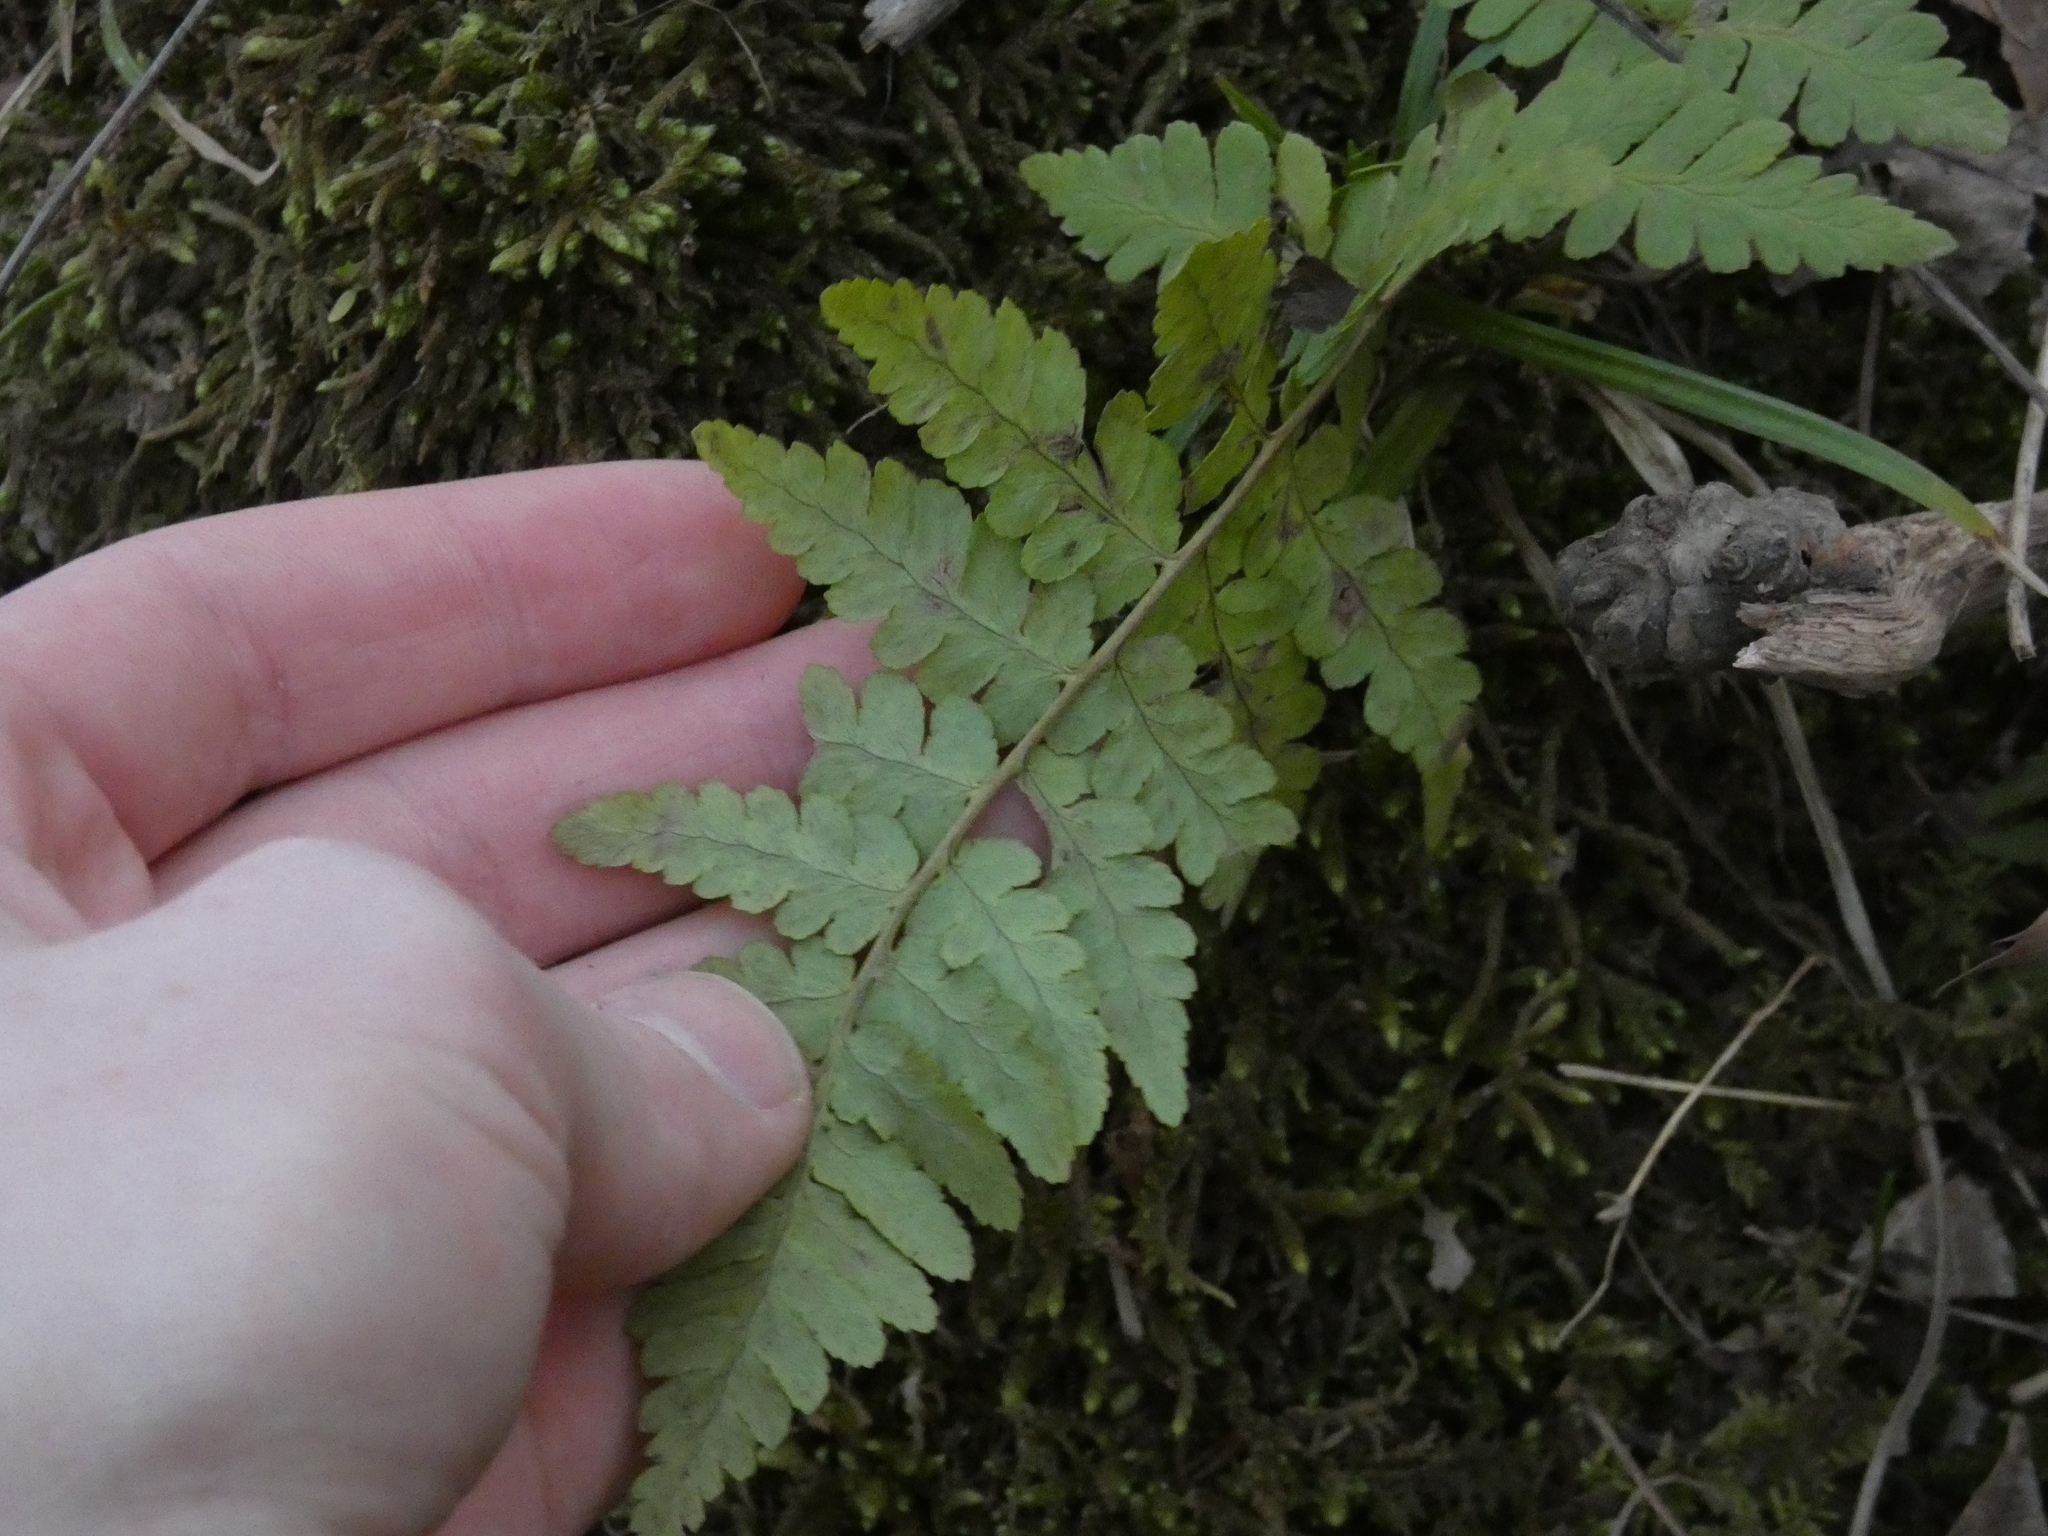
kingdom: Plantae
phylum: Tracheophyta
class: Polypodiopsida
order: Polypodiales
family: Dryopteridaceae
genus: Dryopteris
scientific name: Dryopteris marginalis
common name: Marginal wood fern
